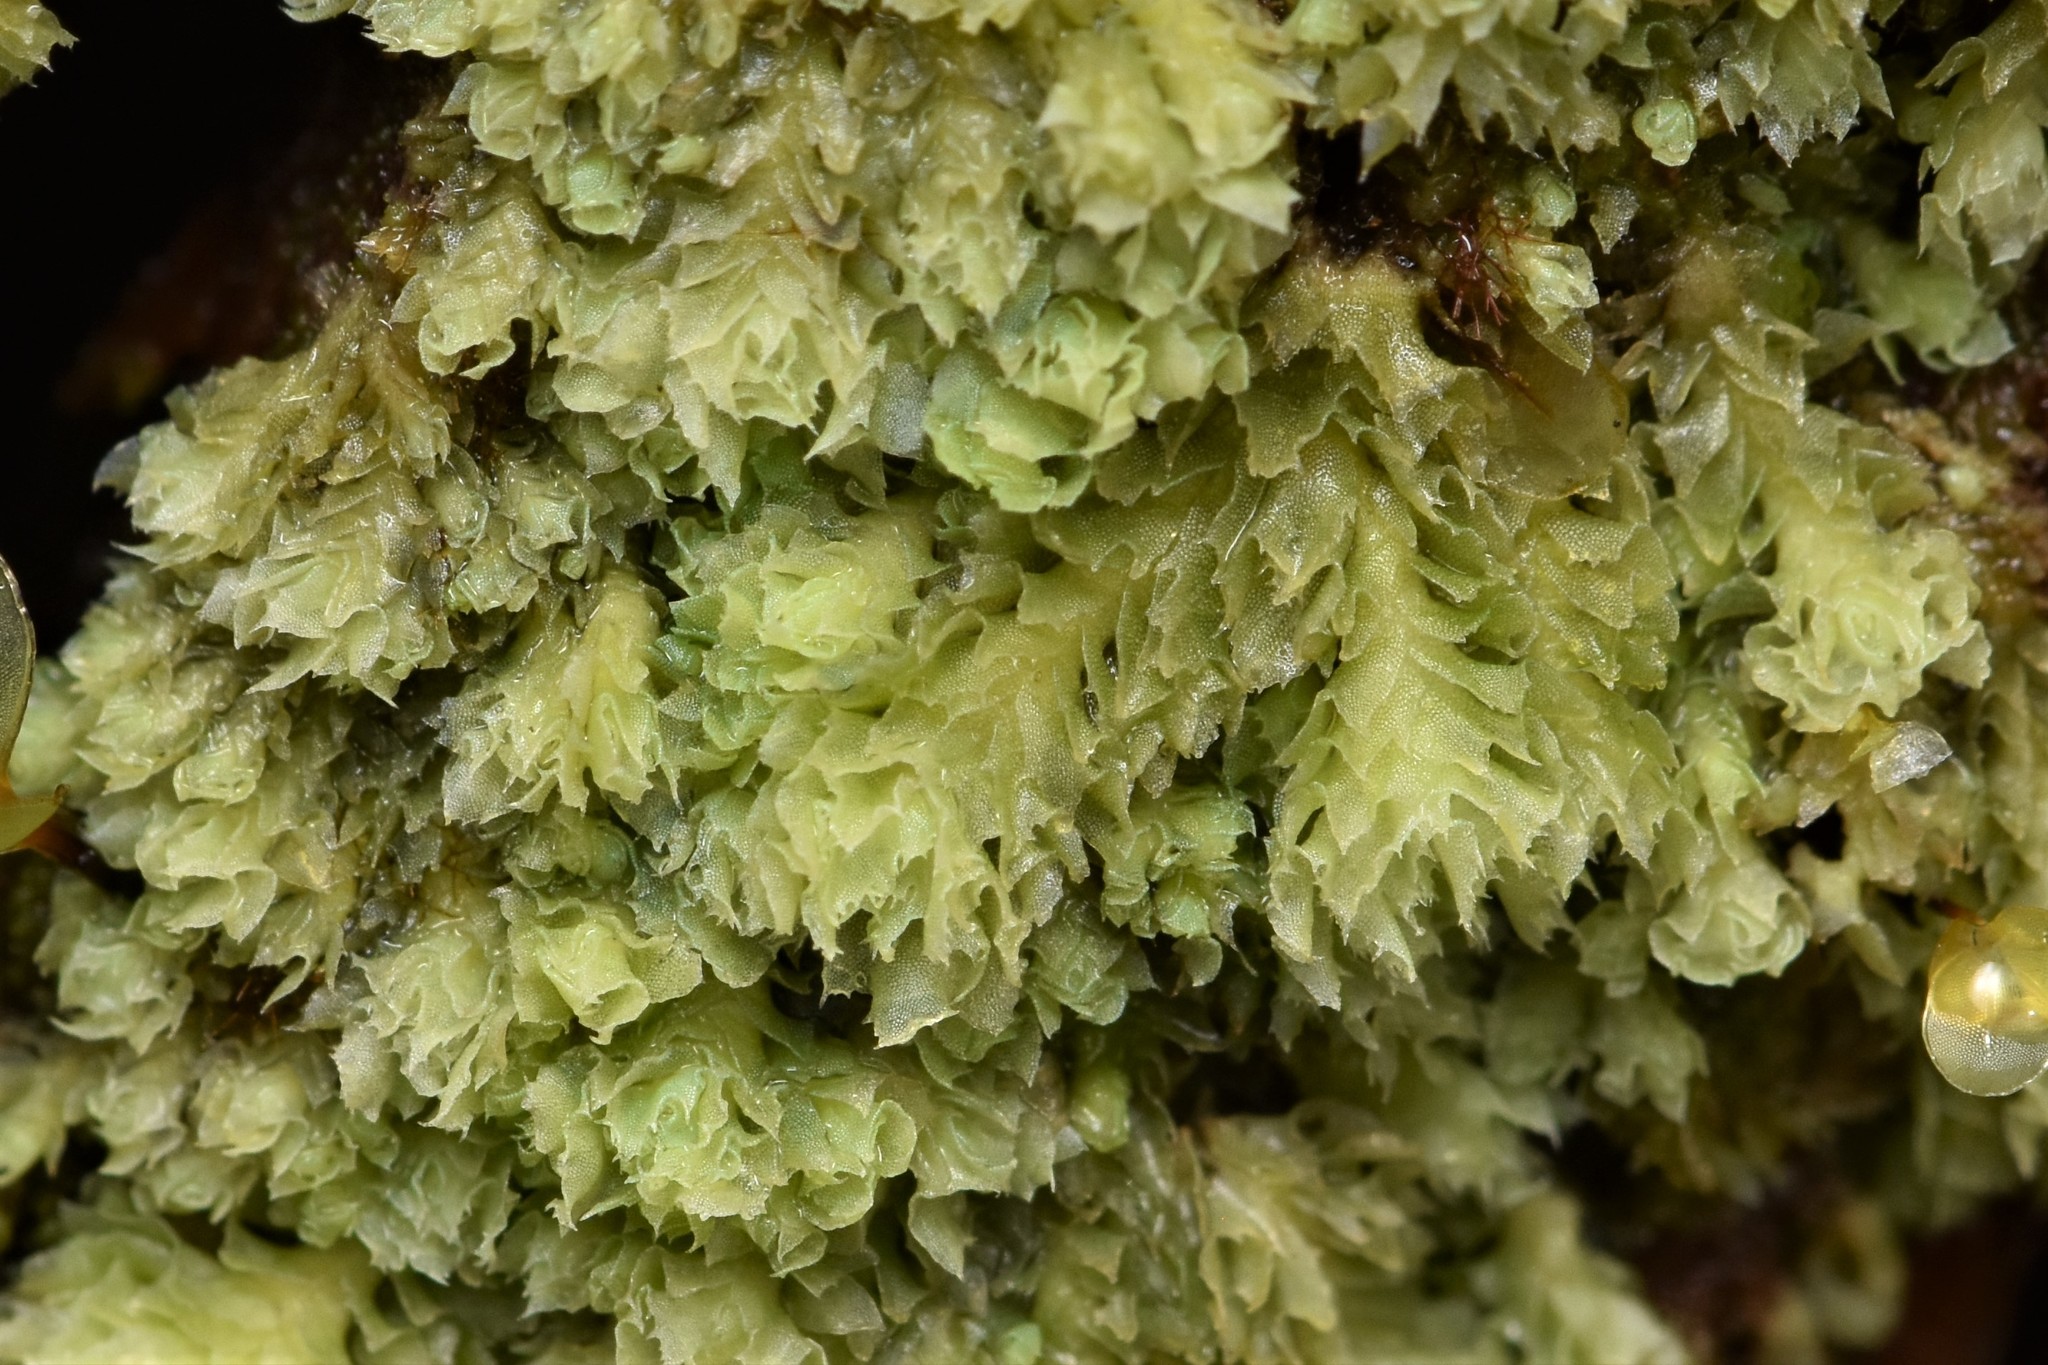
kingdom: Plantae
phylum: Marchantiophyta
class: Jungermanniopsida
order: Jungermanniales
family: Scapaniaceae
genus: Schistochilopsis
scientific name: Schistochilopsis incisa
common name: Jagged notchwort
